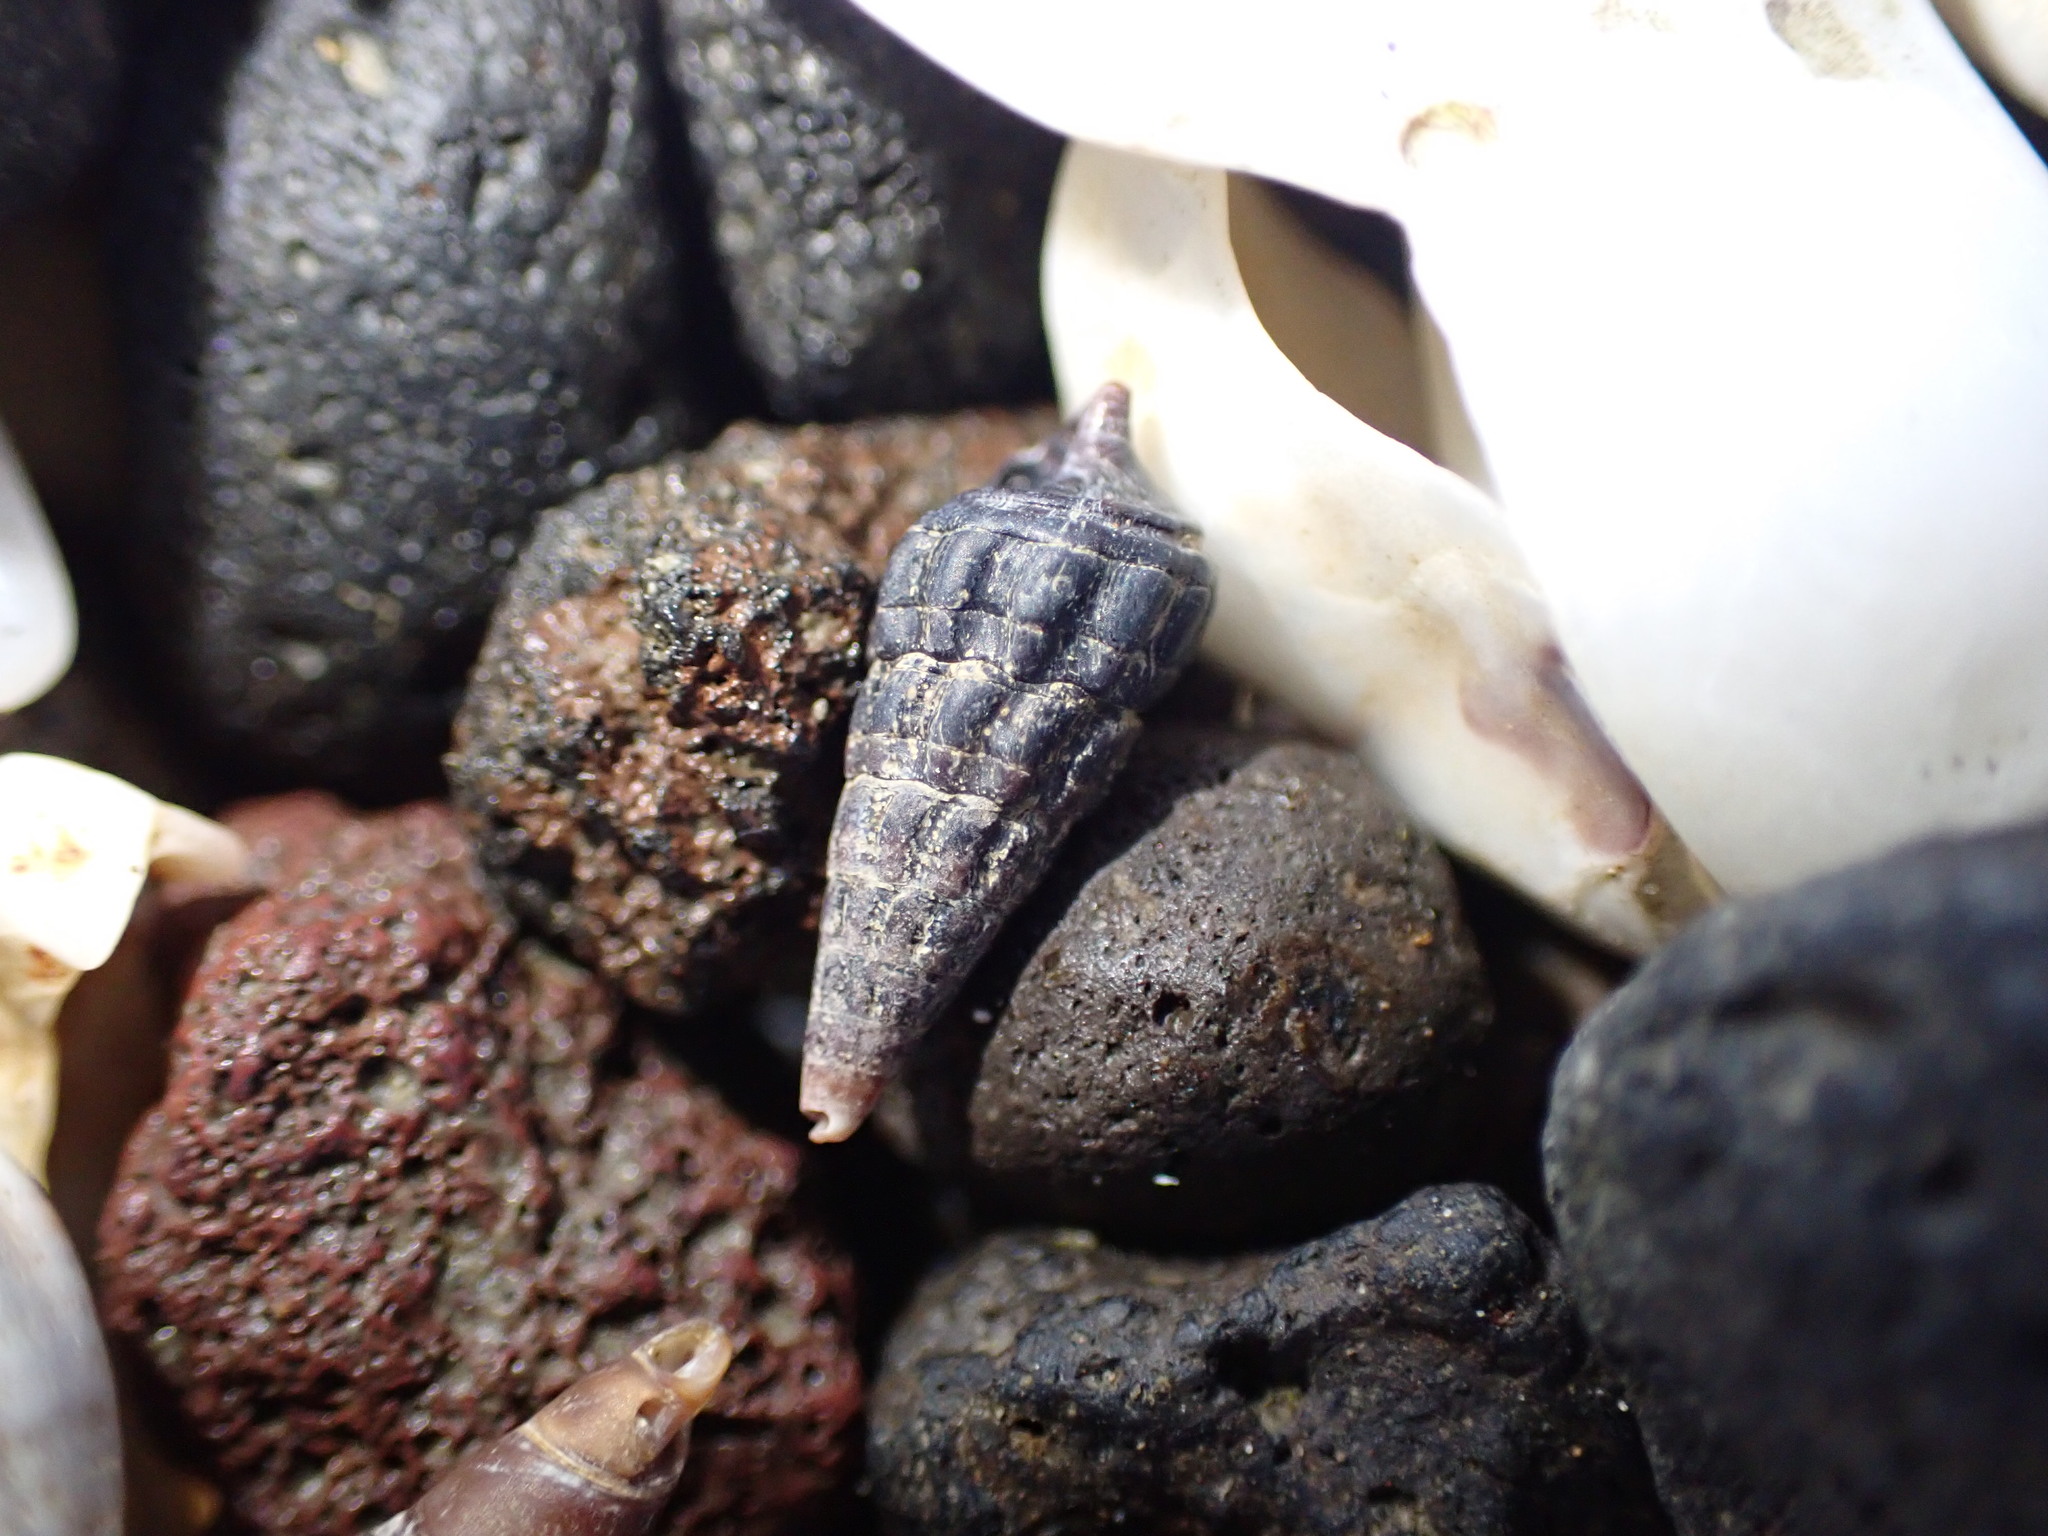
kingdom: Animalia
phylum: Mollusca
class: Gastropoda
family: Batillariidae
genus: Zeacumantus
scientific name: Zeacumantus subcarinatus
